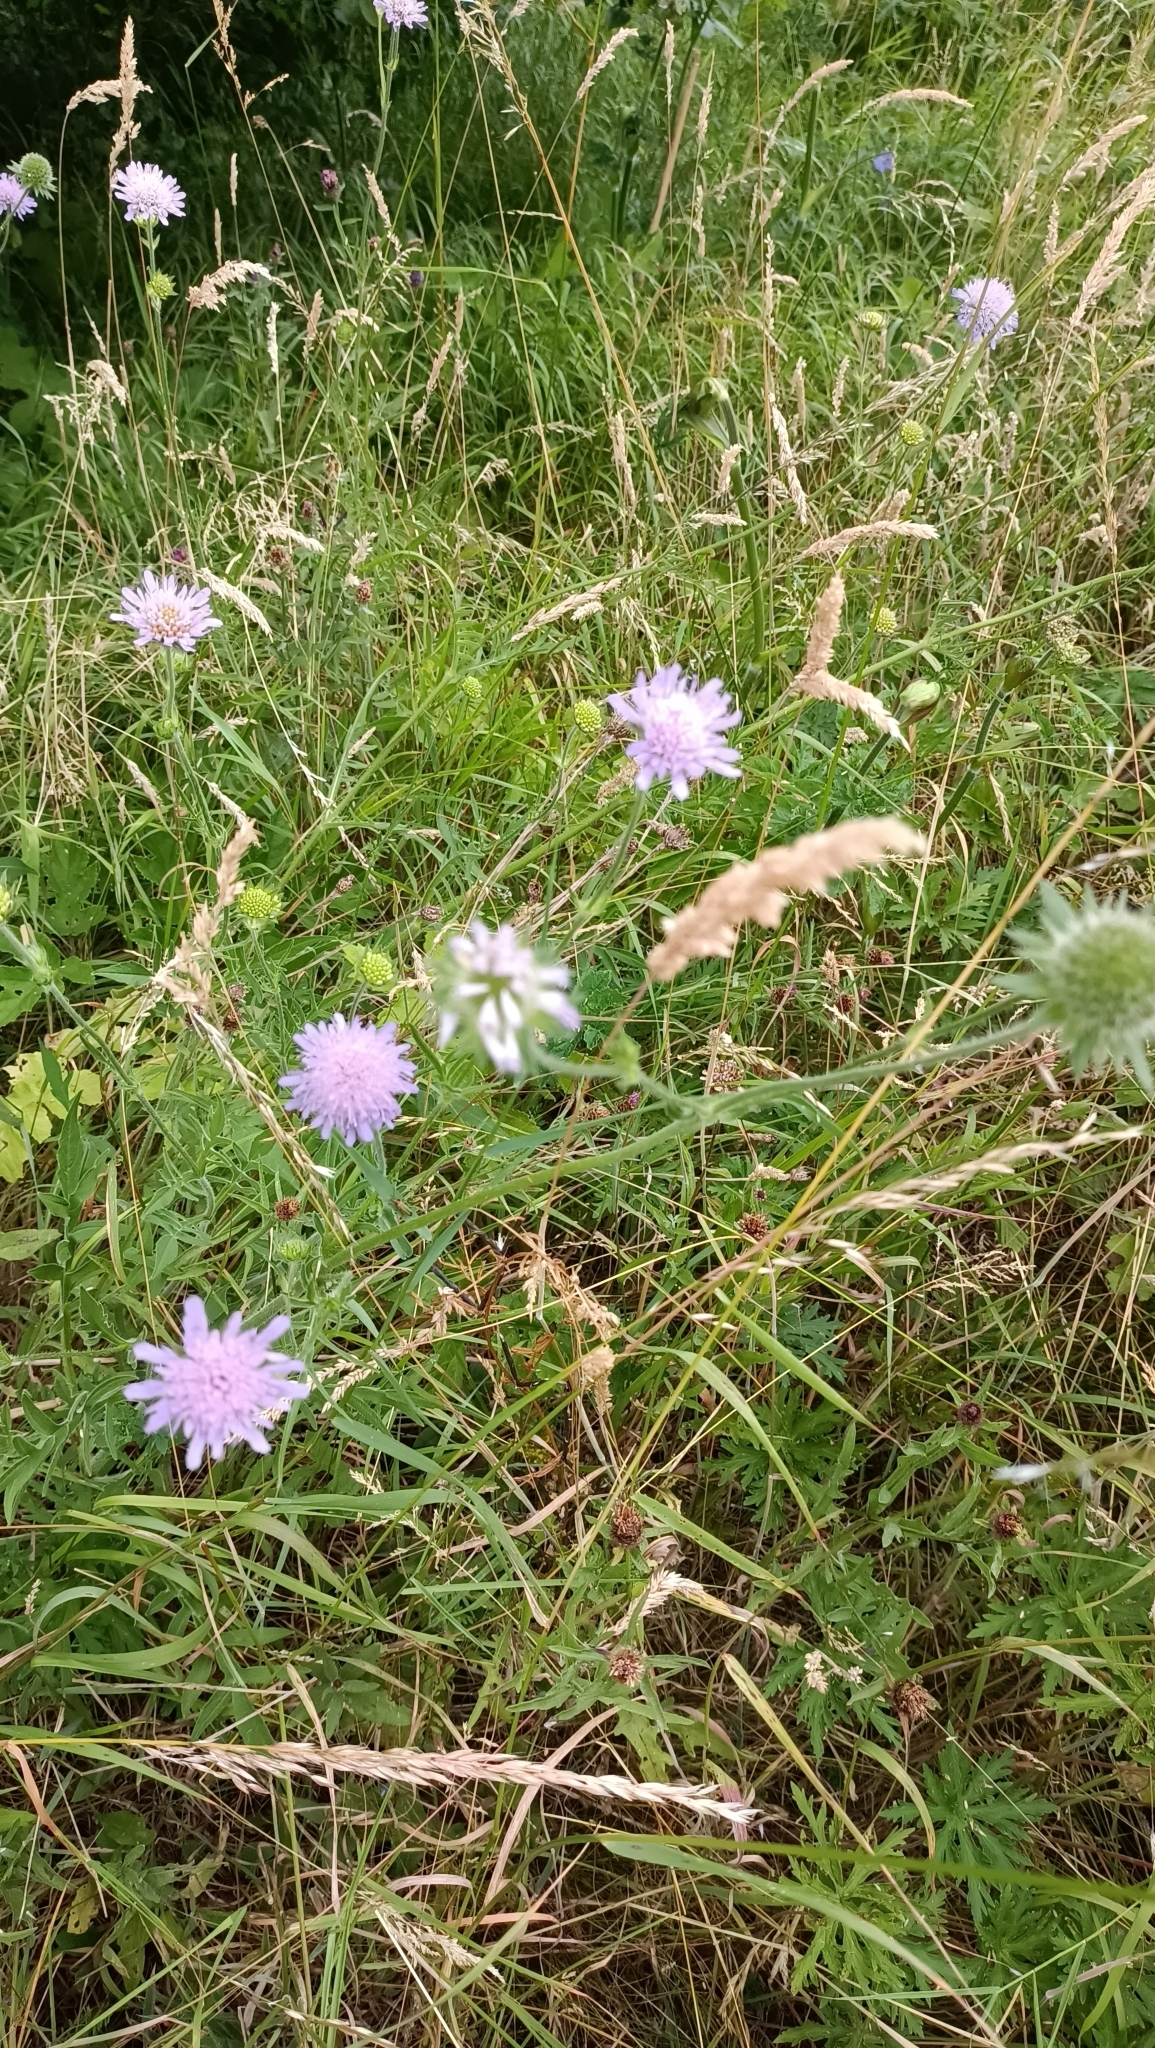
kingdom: Plantae
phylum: Tracheophyta
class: Magnoliopsida
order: Dipsacales
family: Caprifoliaceae
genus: Knautia
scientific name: Knautia arvensis
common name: Field scabiosa
